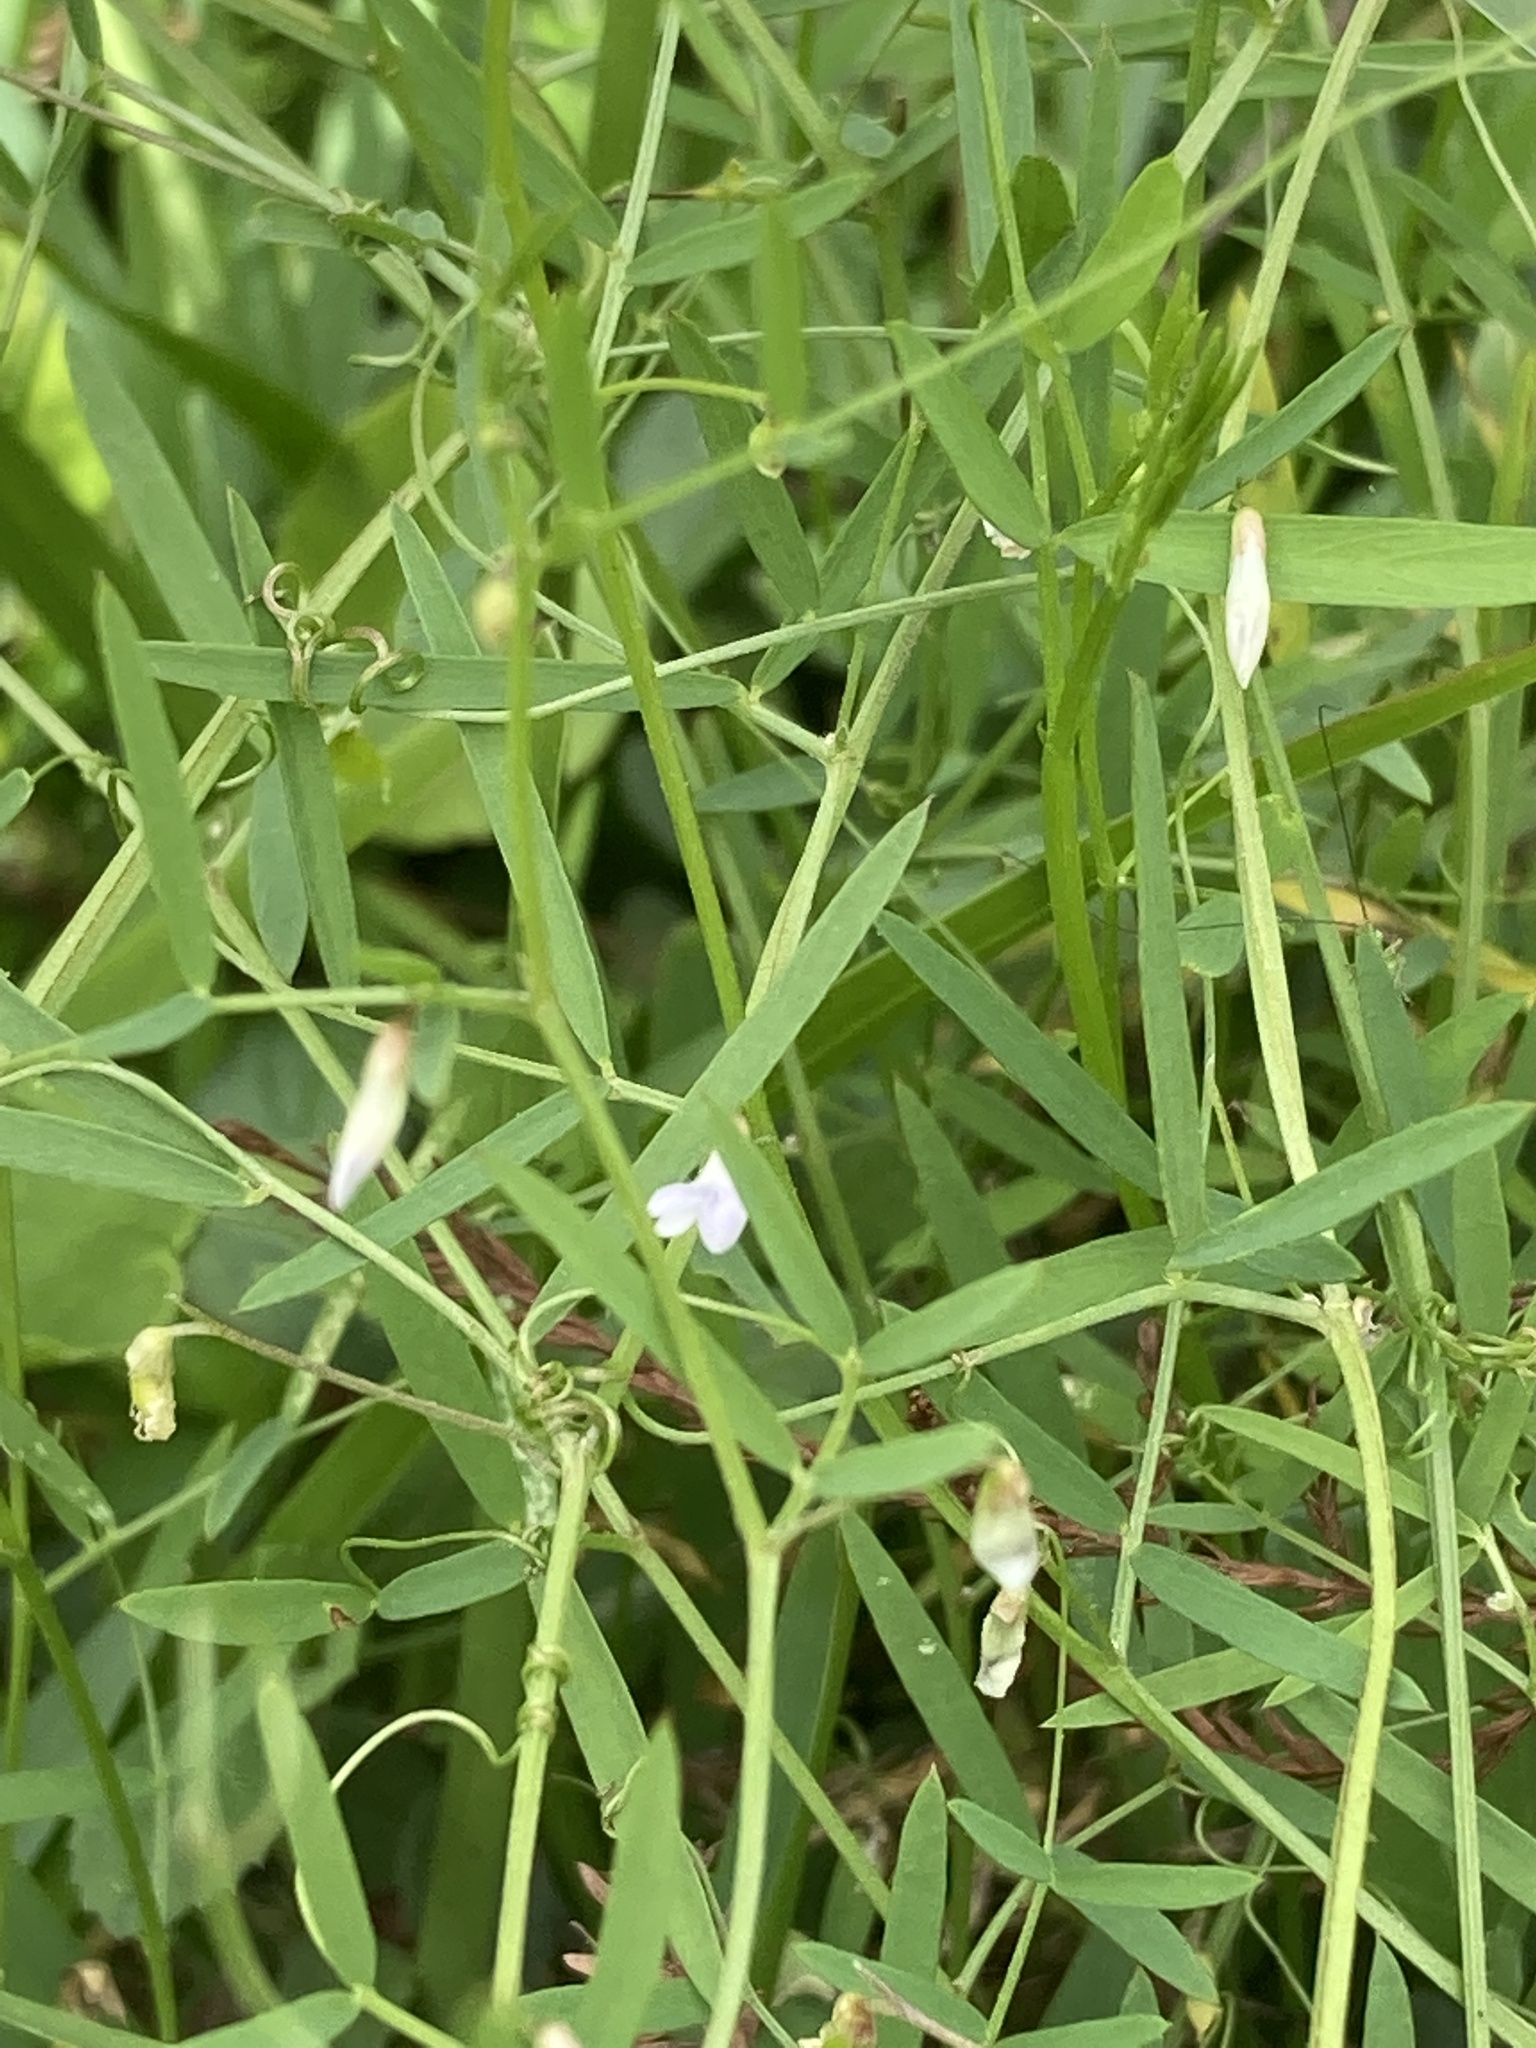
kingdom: Plantae
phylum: Tracheophyta
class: Magnoliopsida
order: Fabales
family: Fabaceae
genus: Vicia
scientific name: Vicia acutifolia
